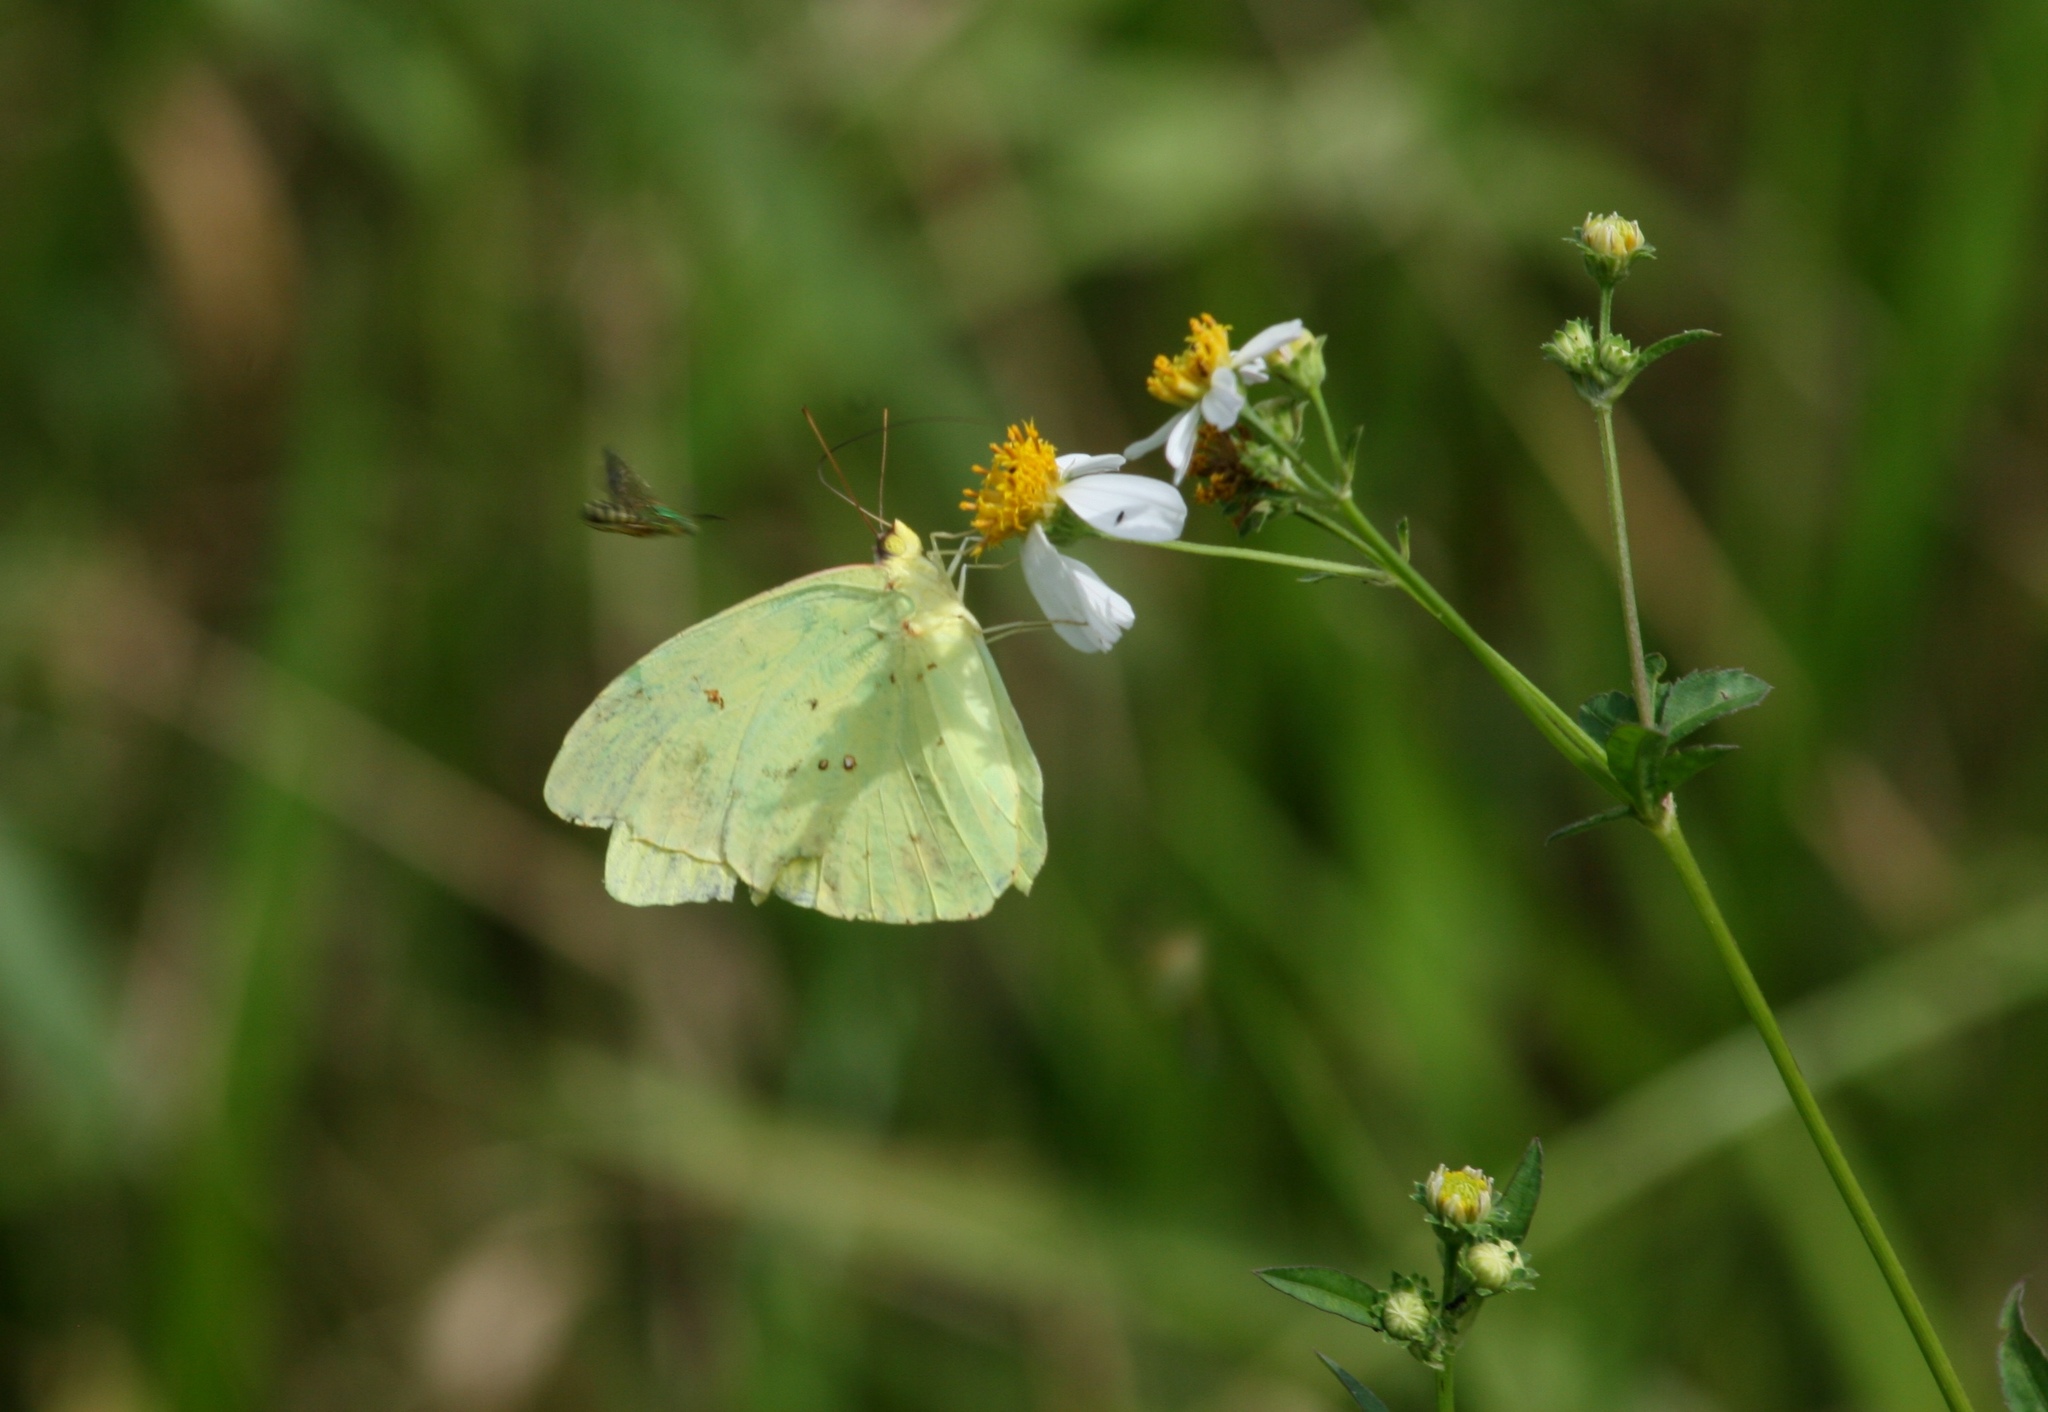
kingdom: Animalia
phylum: Arthropoda
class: Insecta
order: Lepidoptera
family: Pieridae
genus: Phoebis
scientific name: Phoebis sennae
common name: Cloudless sulphur
